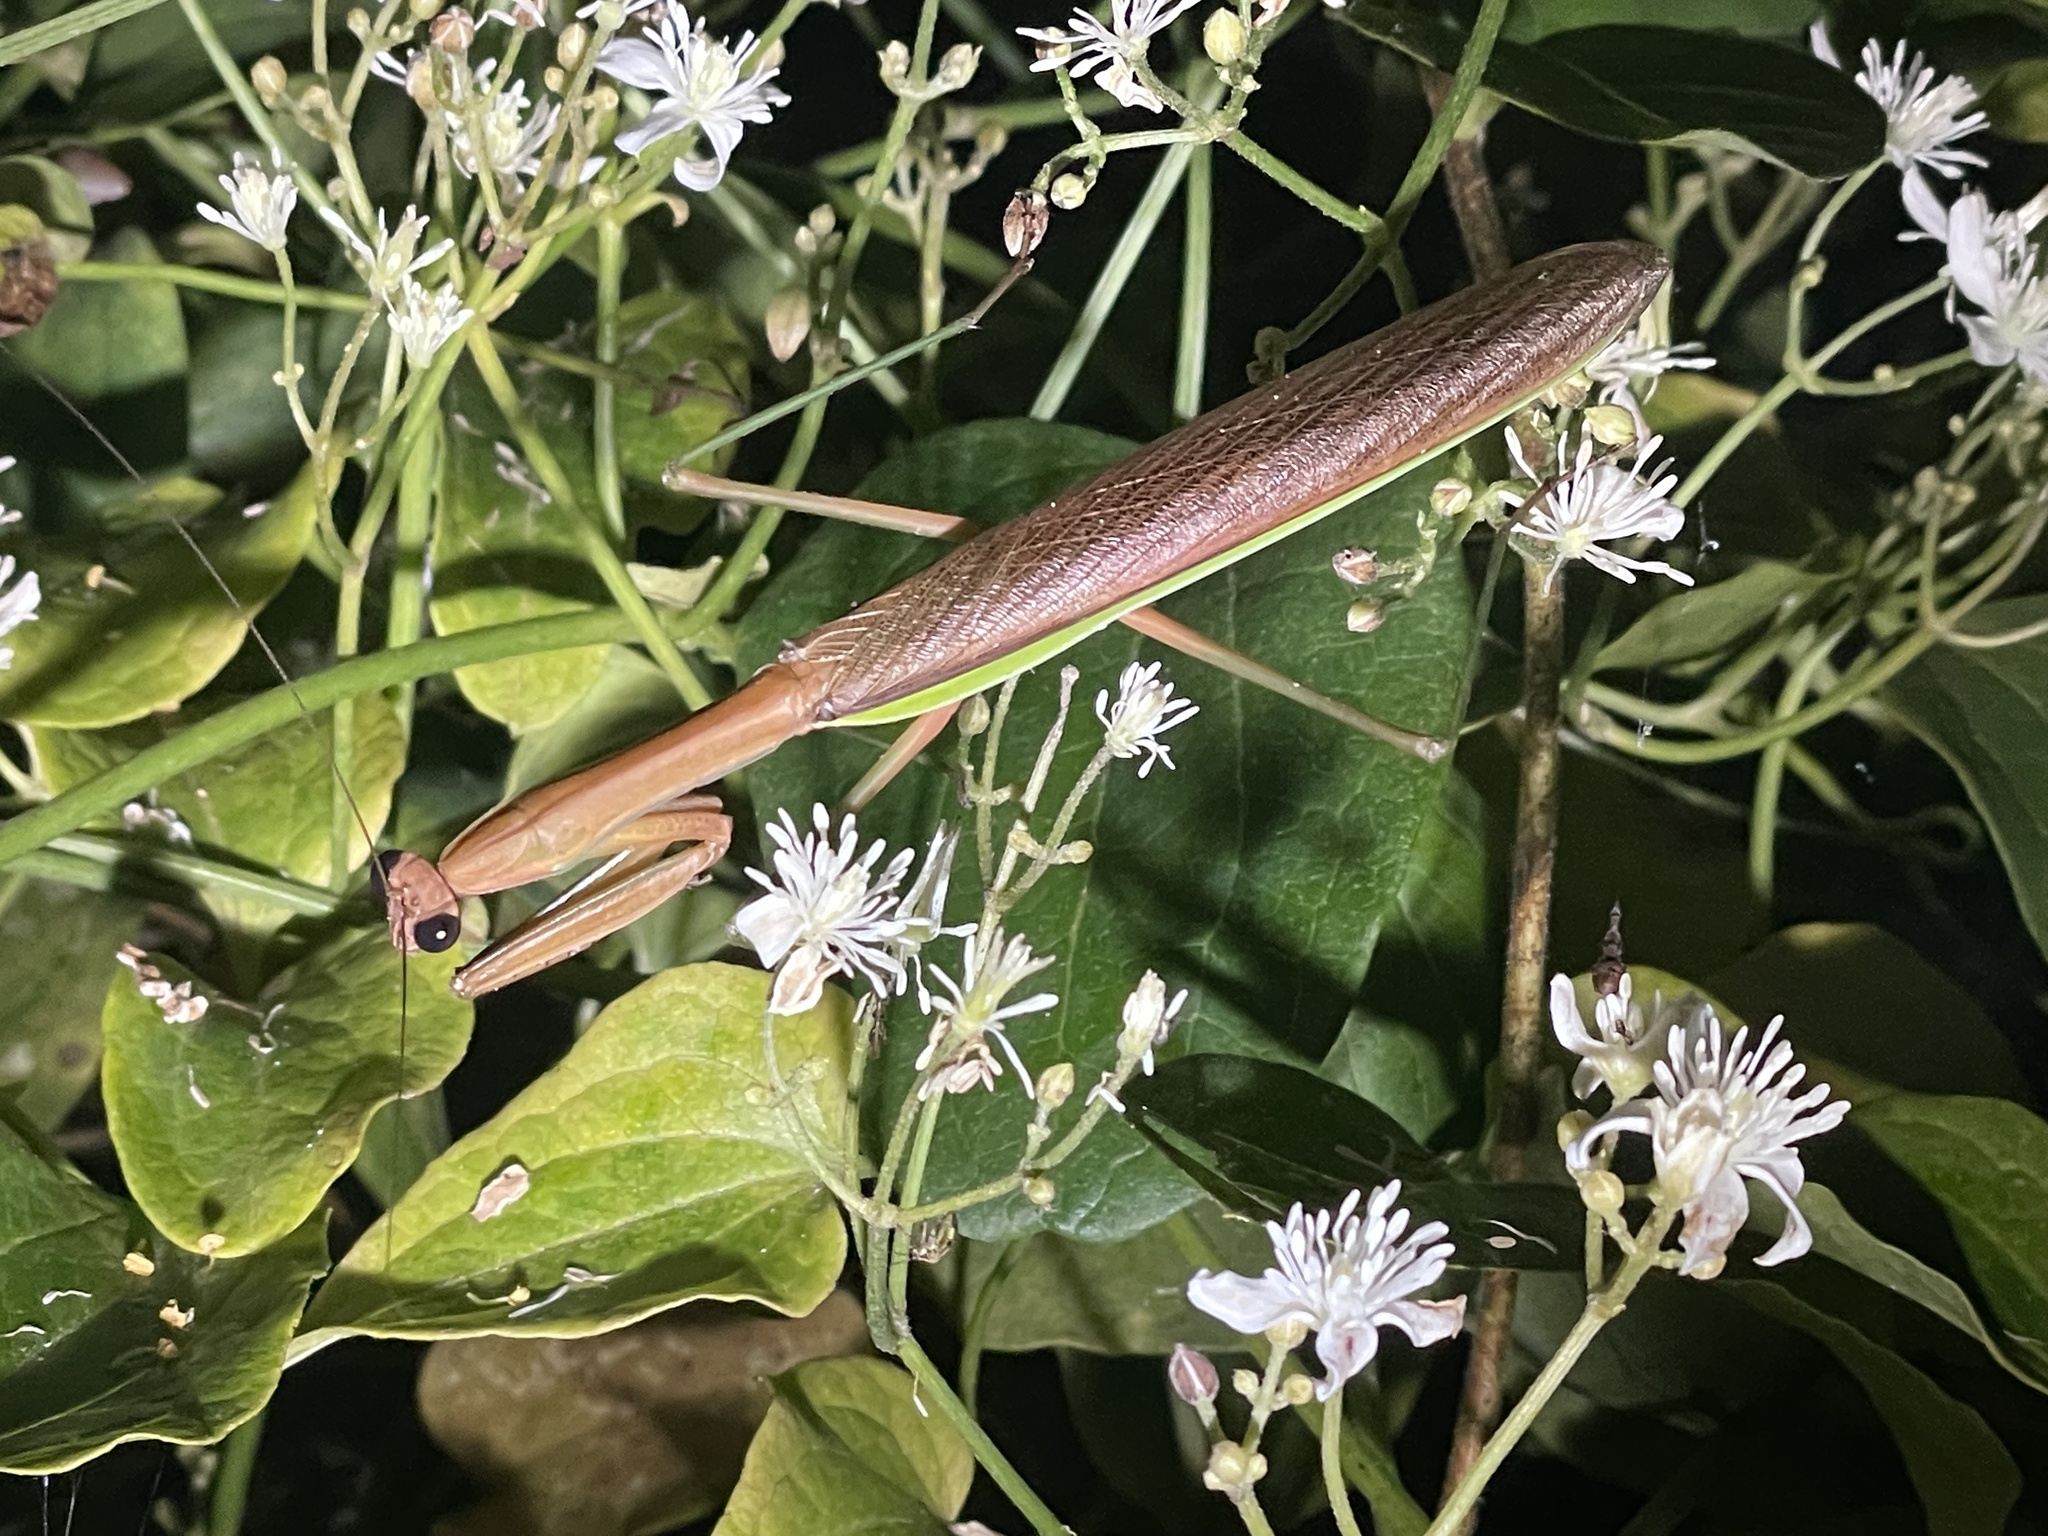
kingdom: Animalia
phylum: Arthropoda
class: Insecta
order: Mantodea
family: Mantidae
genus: Tenodera
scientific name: Tenodera sinensis
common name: Chinese mantis
